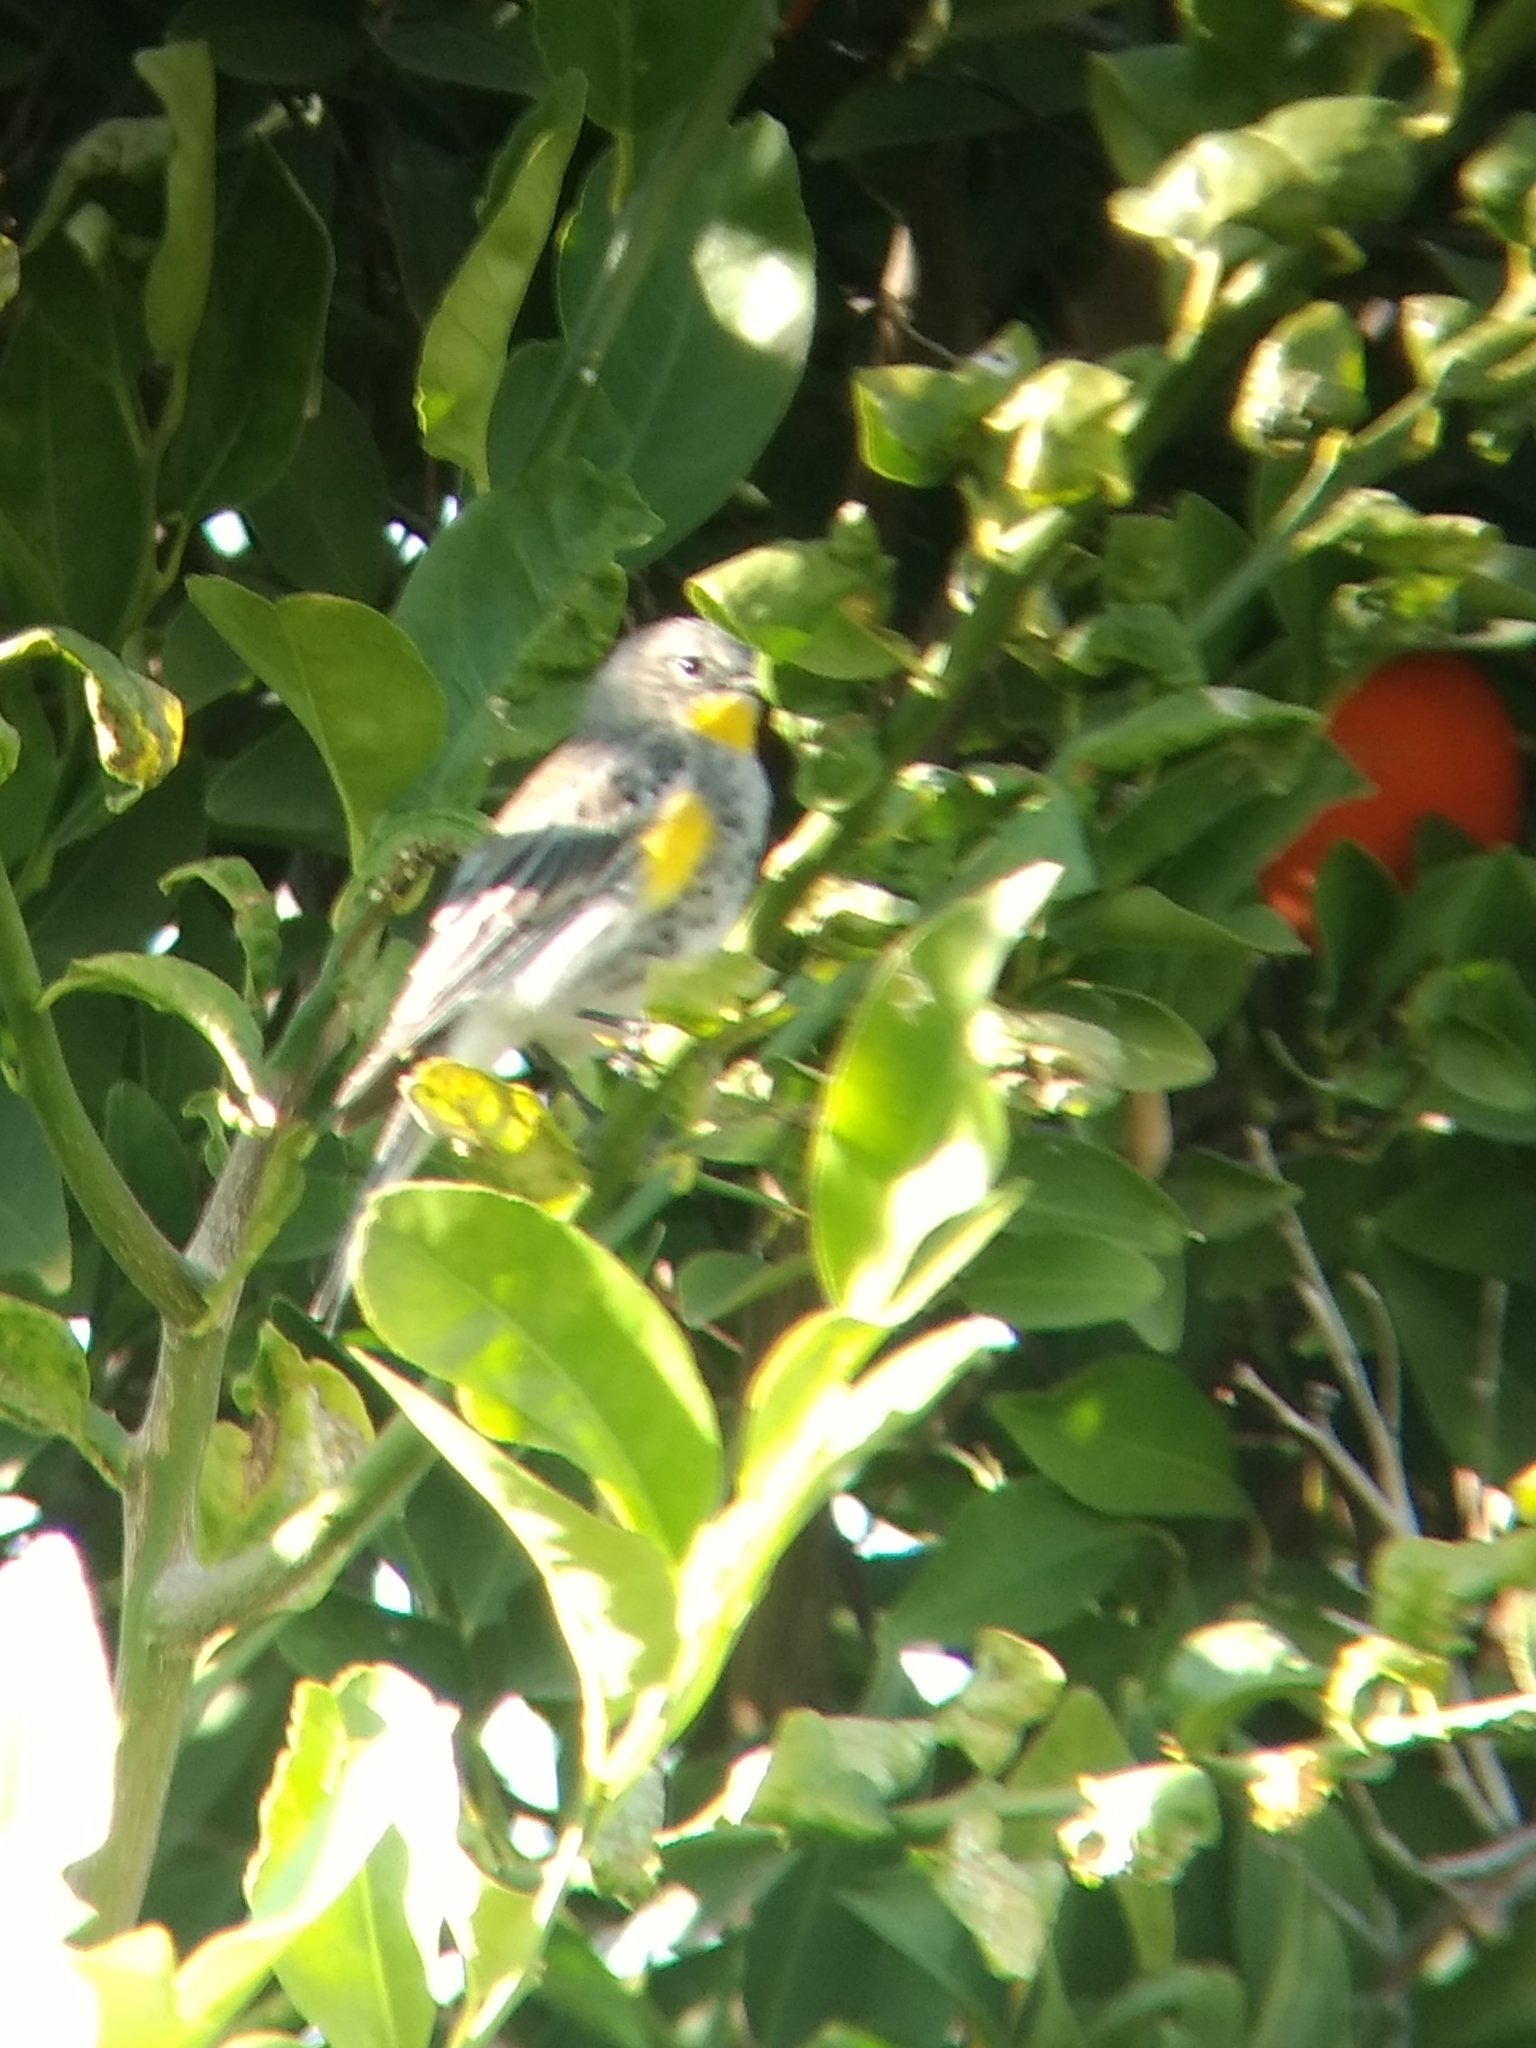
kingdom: Animalia
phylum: Chordata
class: Aves
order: Passeriformes
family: Parulidae
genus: Setophaga
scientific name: Setophaga coronata
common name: Myrtle warbler
